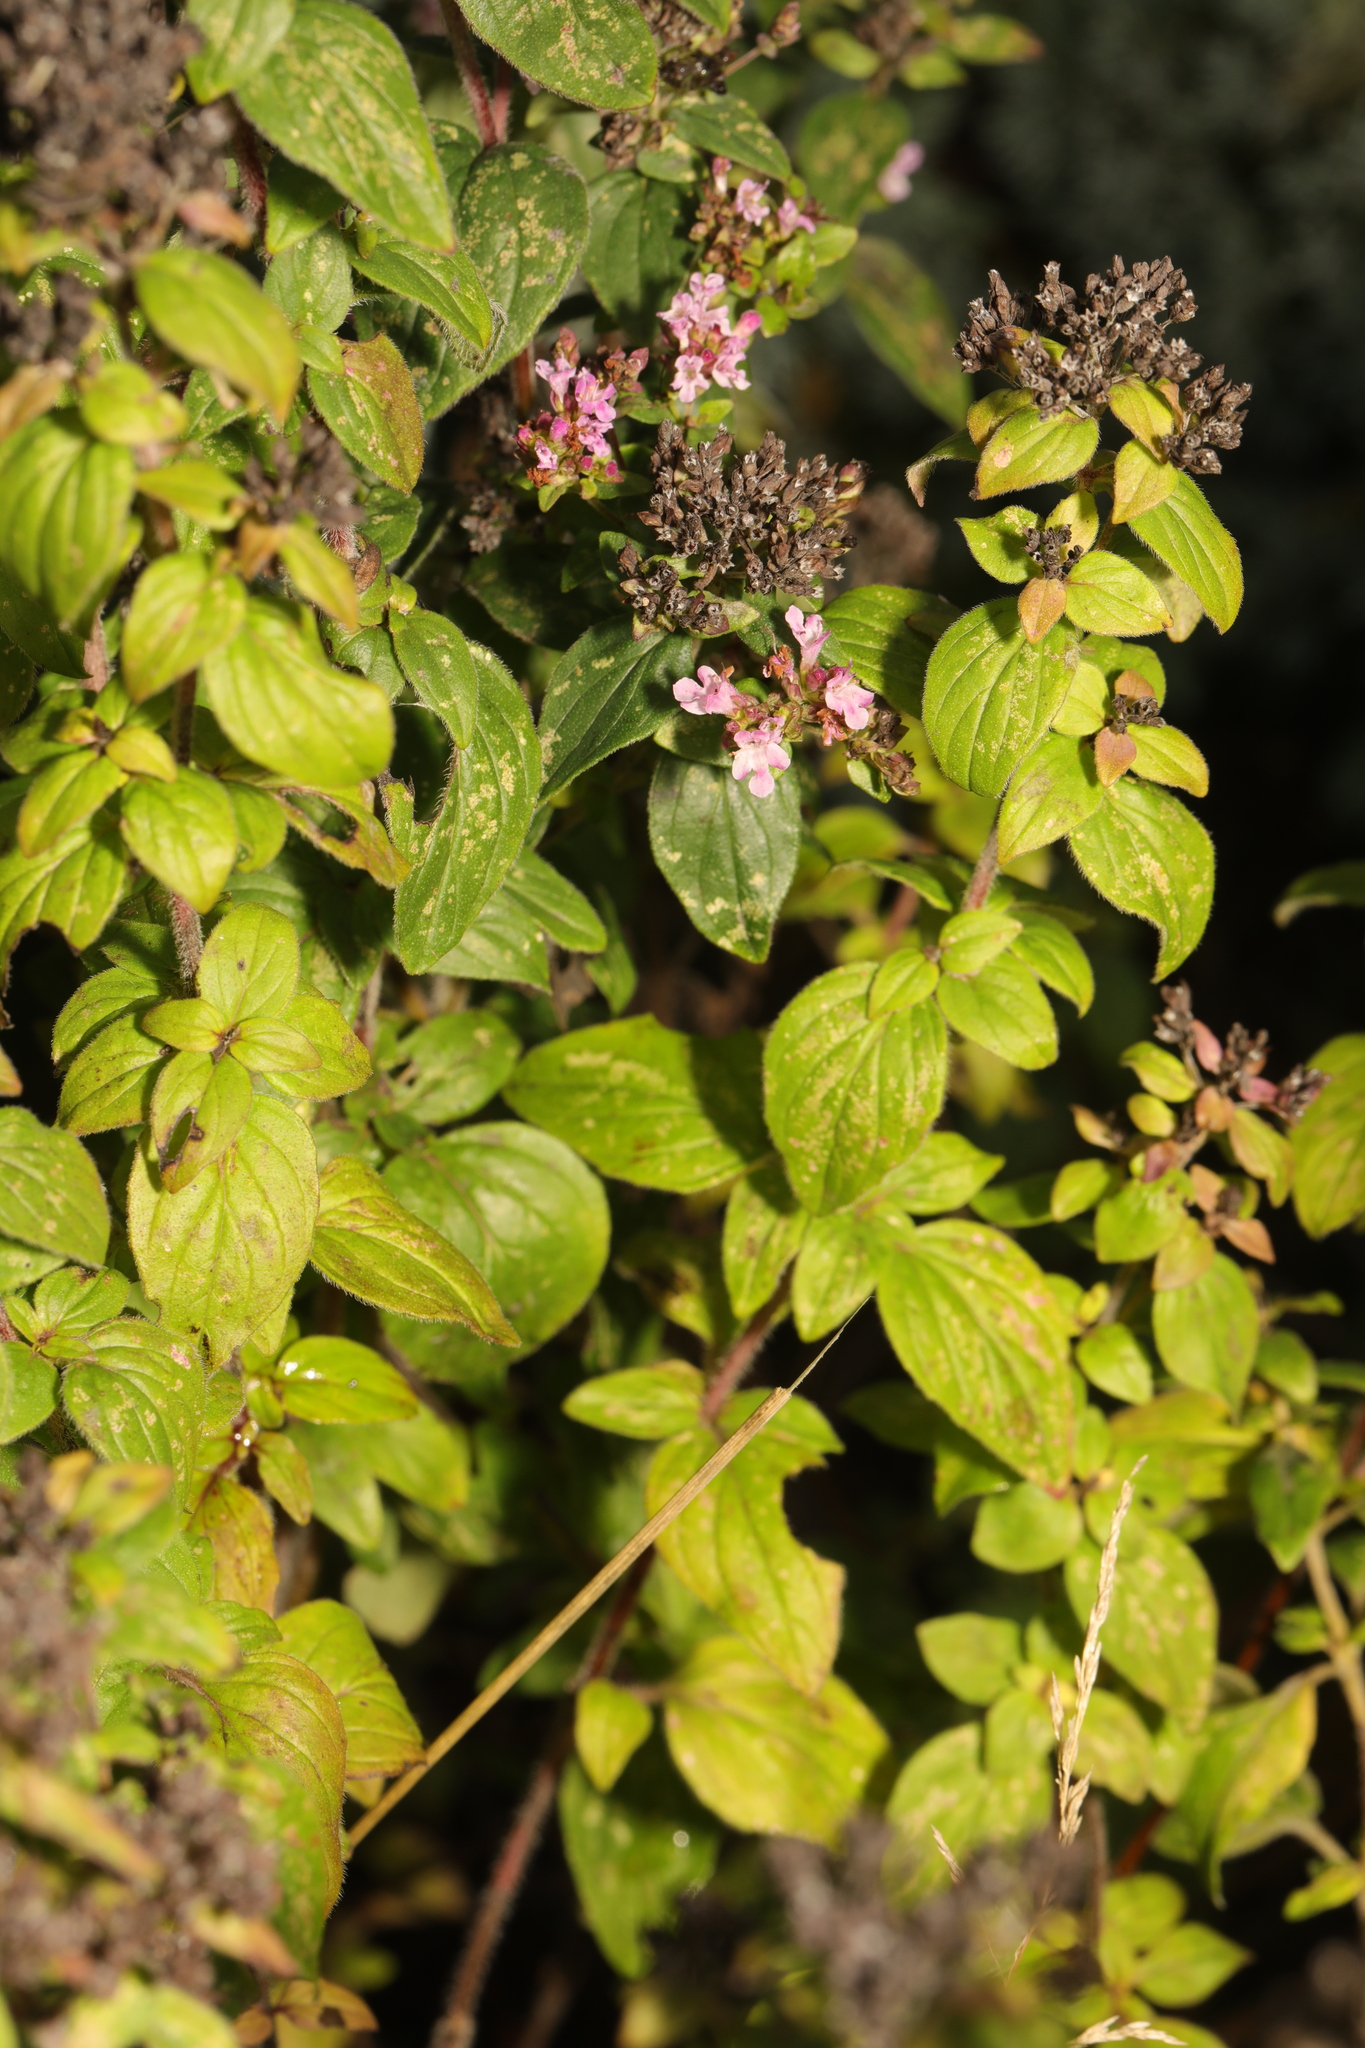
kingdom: Plantae
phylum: Tracheophyta
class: Magnoliopsida
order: Lamiales
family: Lamiaceae
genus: Origanum
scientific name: Origanum vulgare
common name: Wild marjoram
